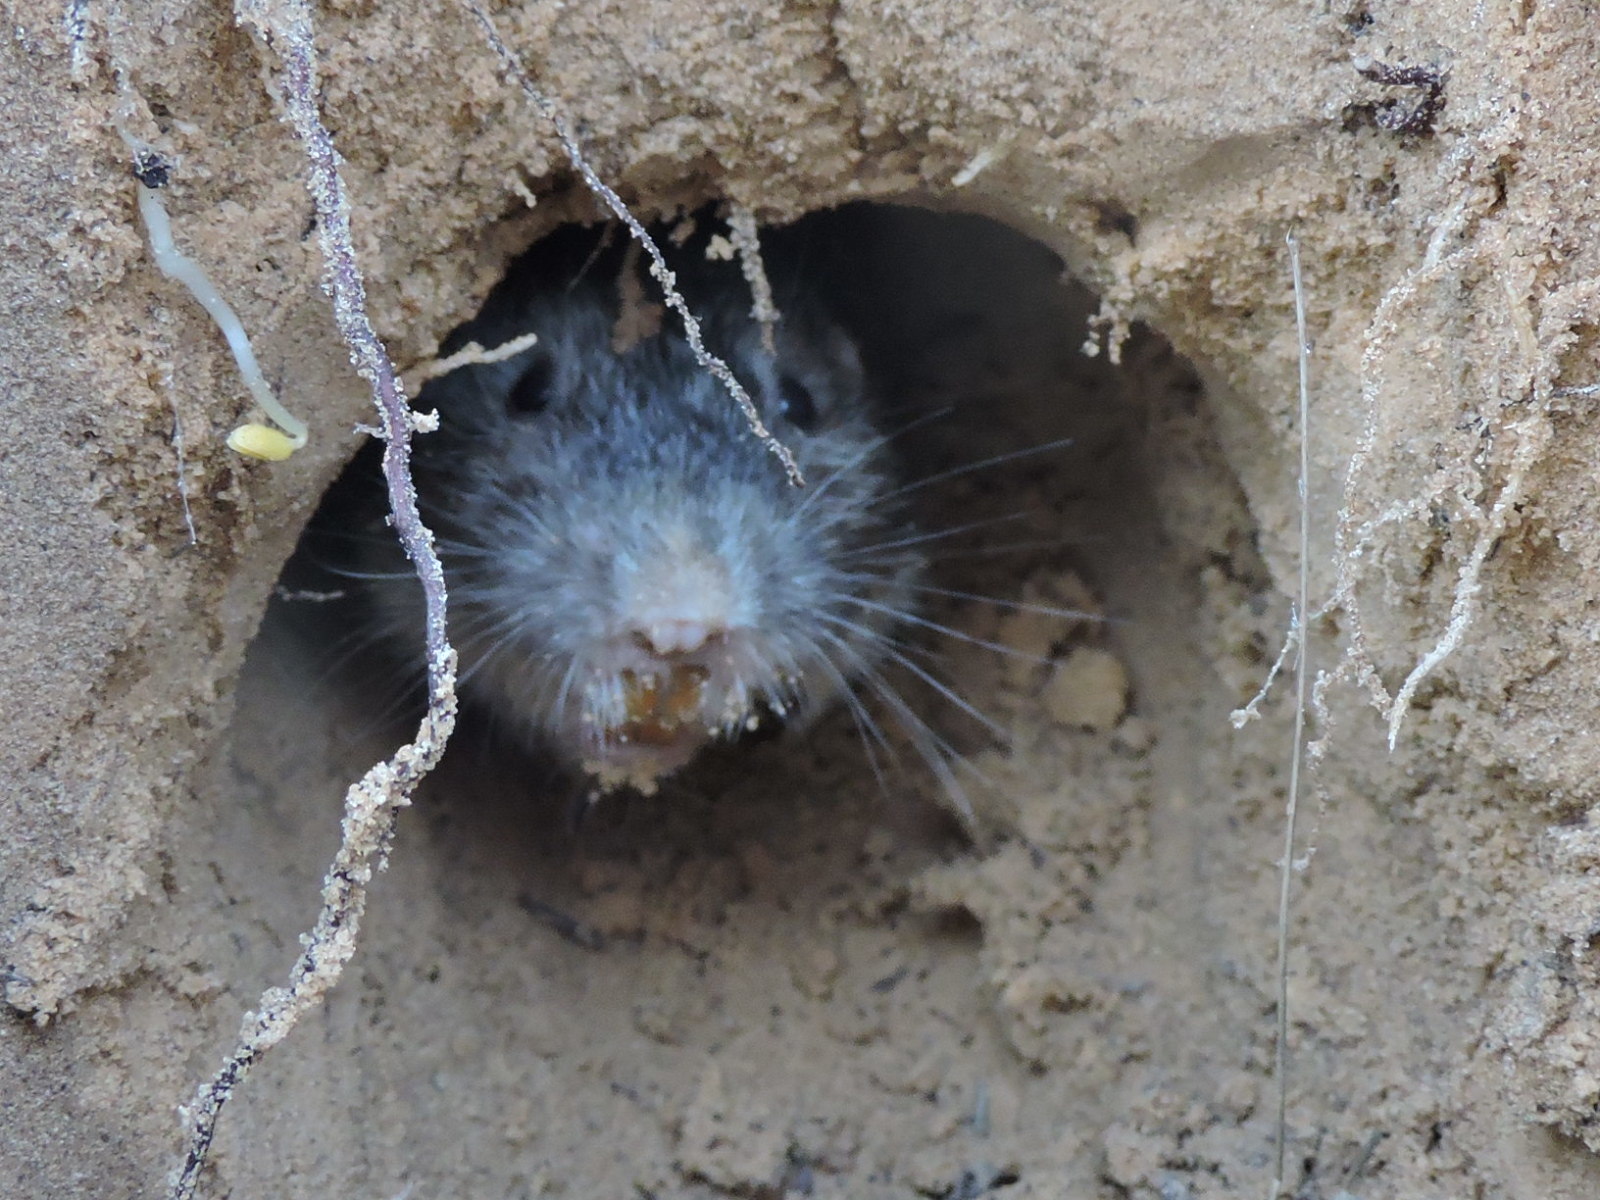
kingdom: Animalia
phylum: Chordata
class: Mammalia
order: Rodentia
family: Geomyidae
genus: Geomys
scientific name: Geomys bursarius
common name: Plains pocket gopher
